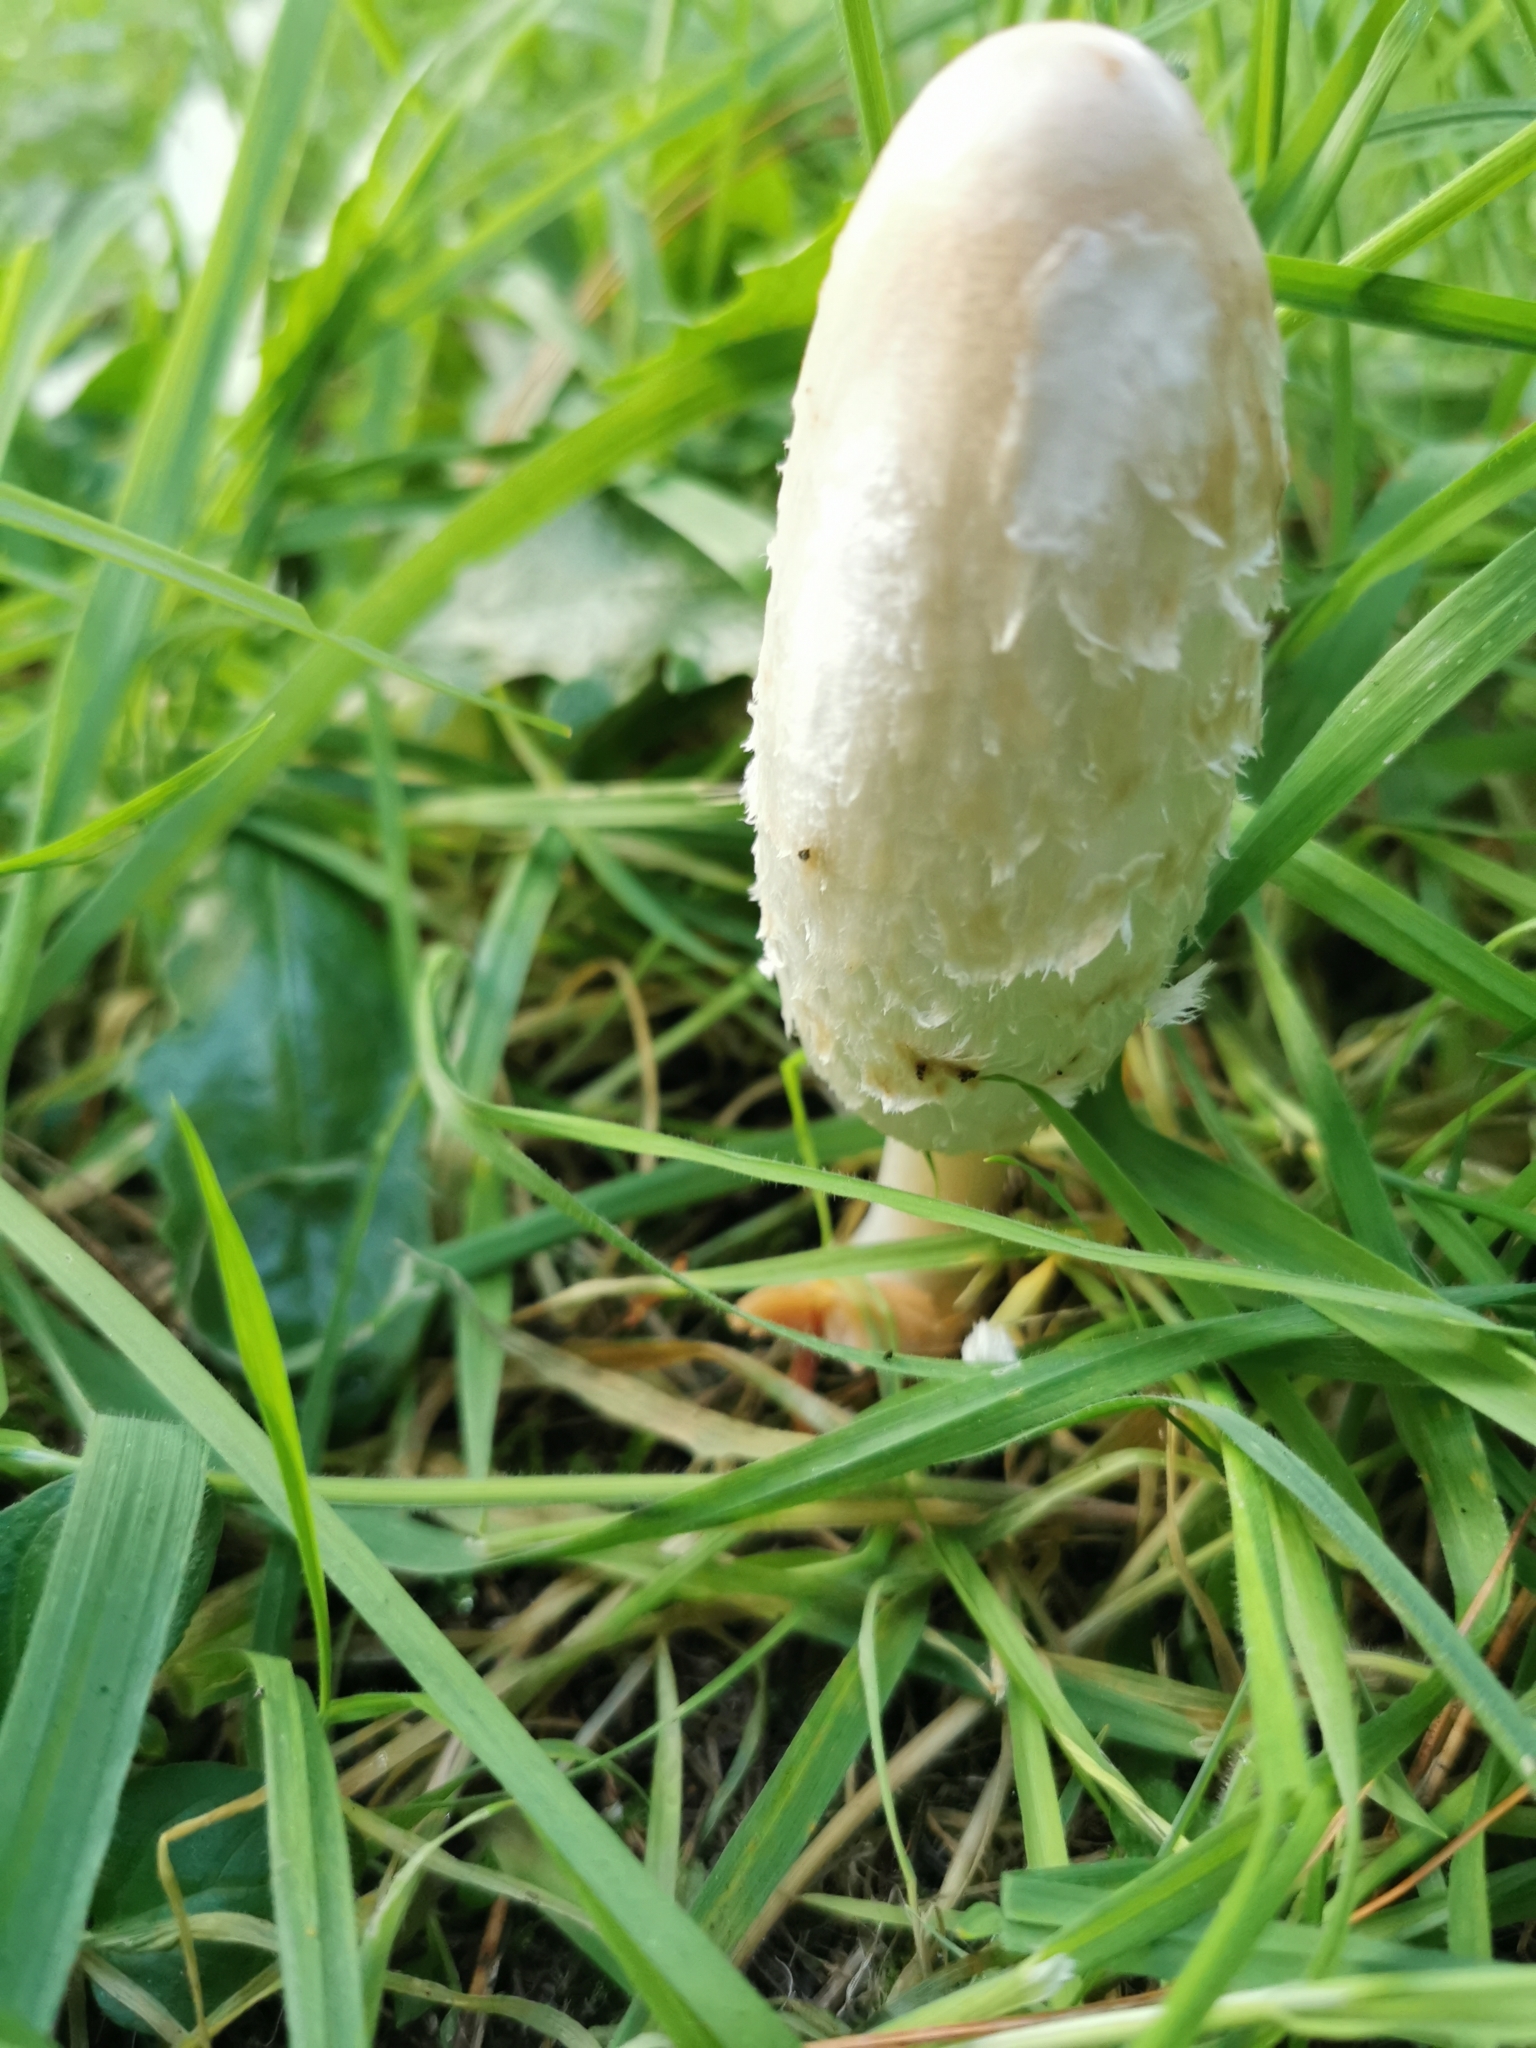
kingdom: Fungi
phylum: Basidiomycota
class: Agaricomycetes
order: Agaricales
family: Agaricaceae
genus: Coprinus
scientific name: Coprinus comatus
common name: Lawyer's wig
